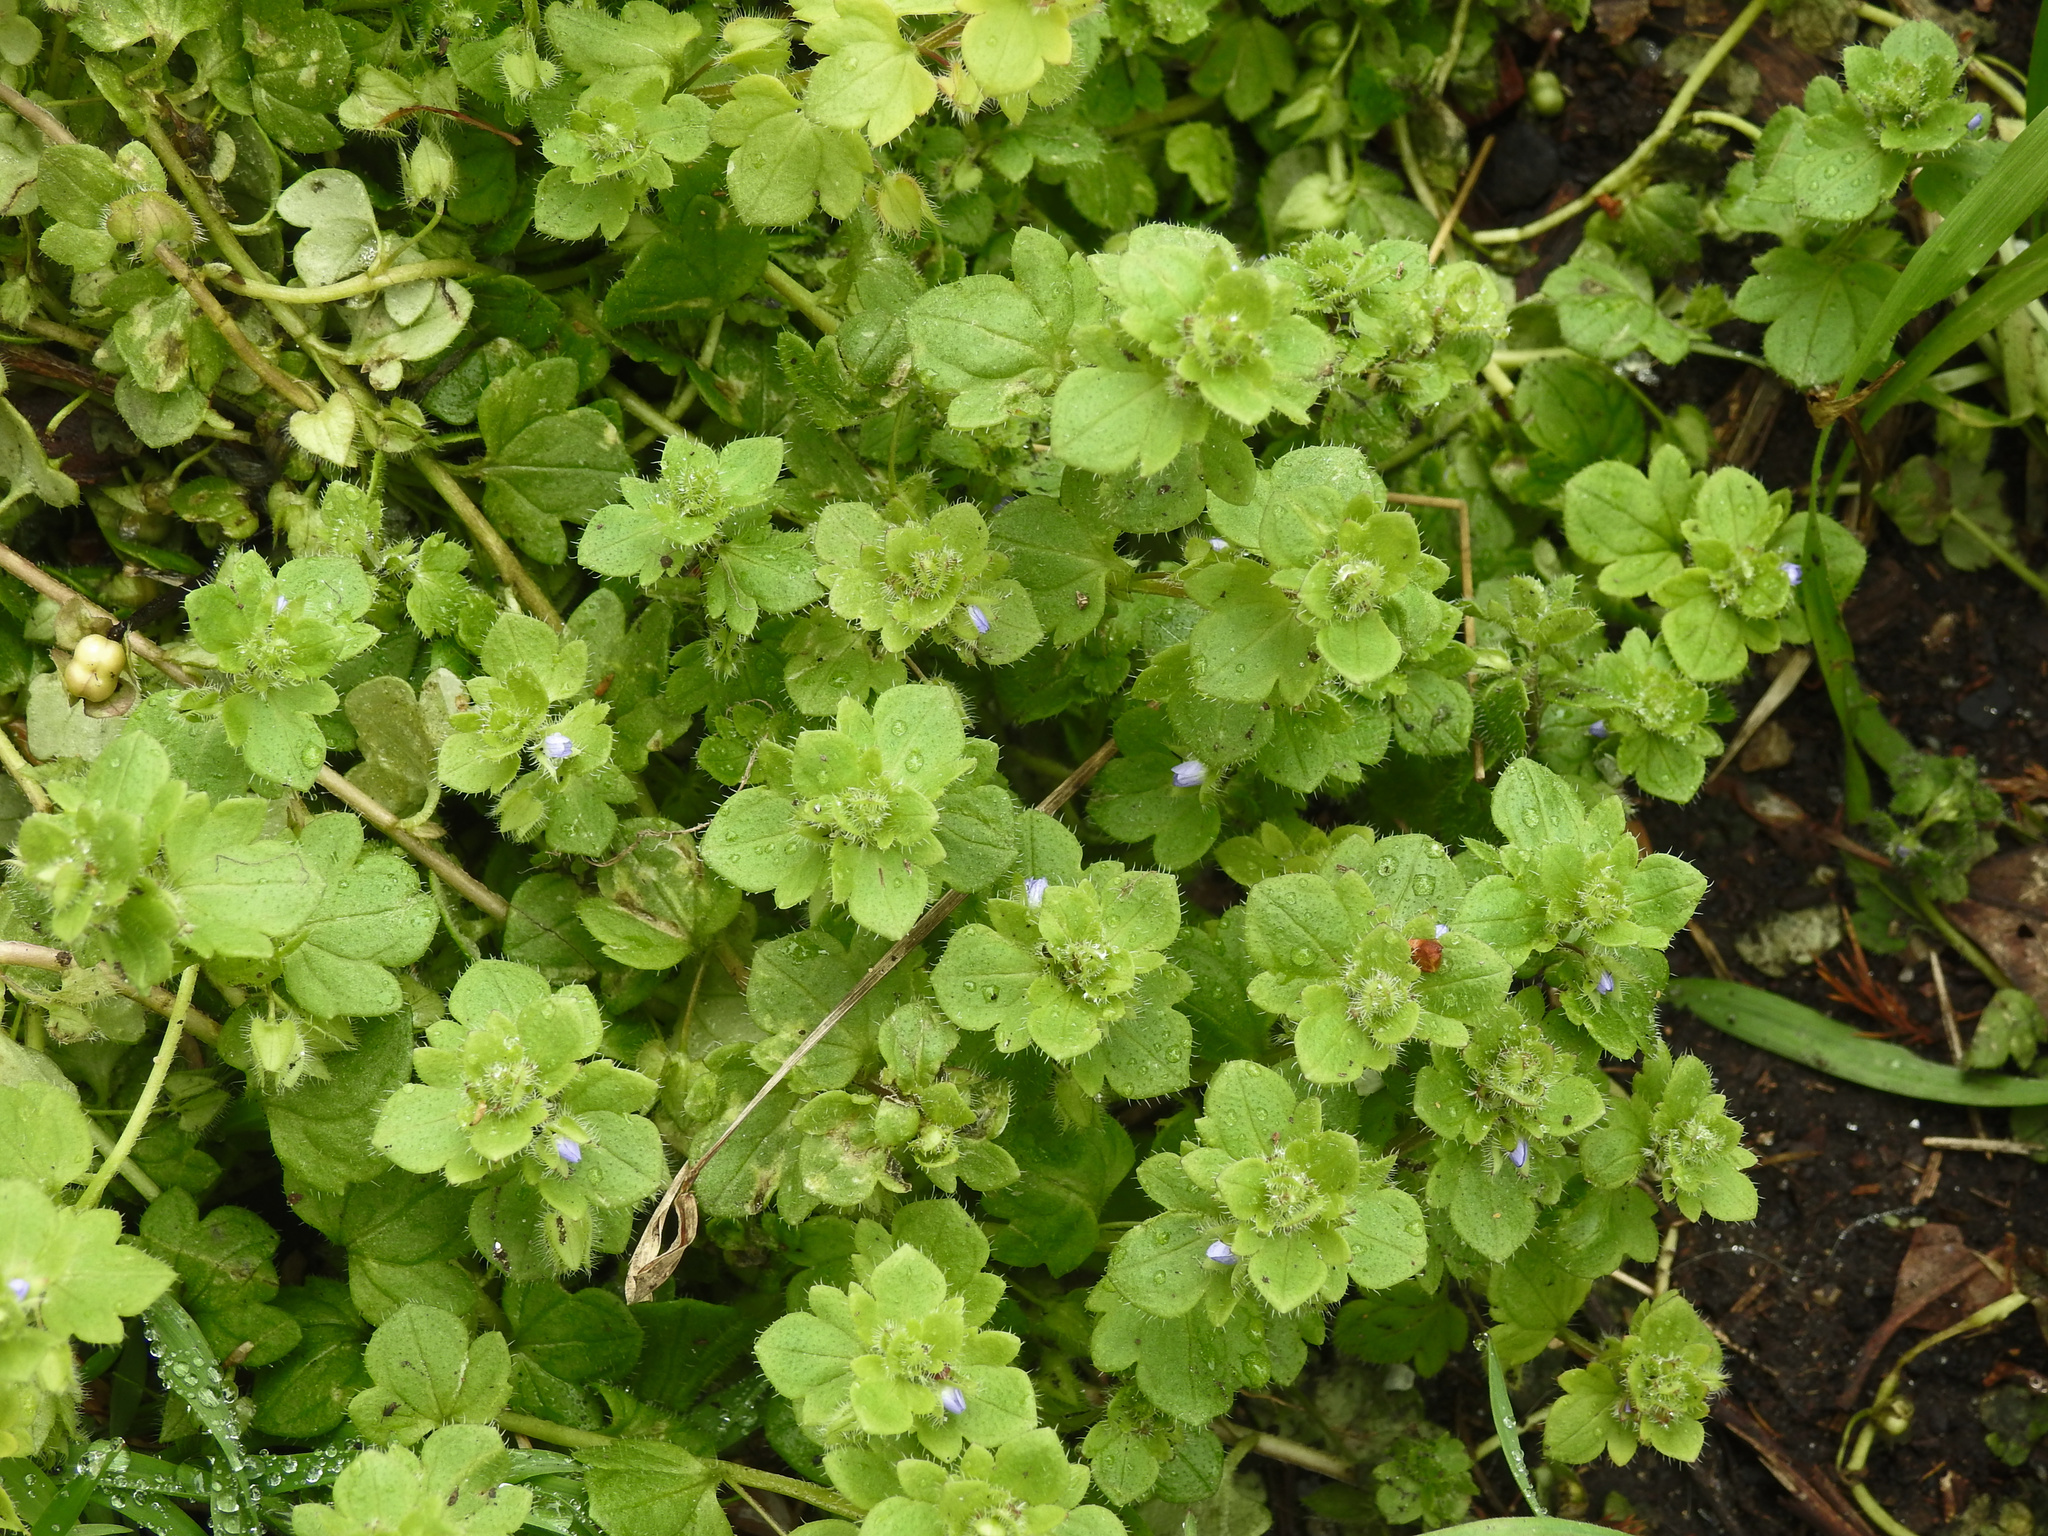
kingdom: Plantae
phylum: Tracheophyta
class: Magnoliopsida
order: Lamiales
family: Plantaginaceae
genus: Veronica
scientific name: Veronica hederifolia
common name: Ivy-leaved speedwell
